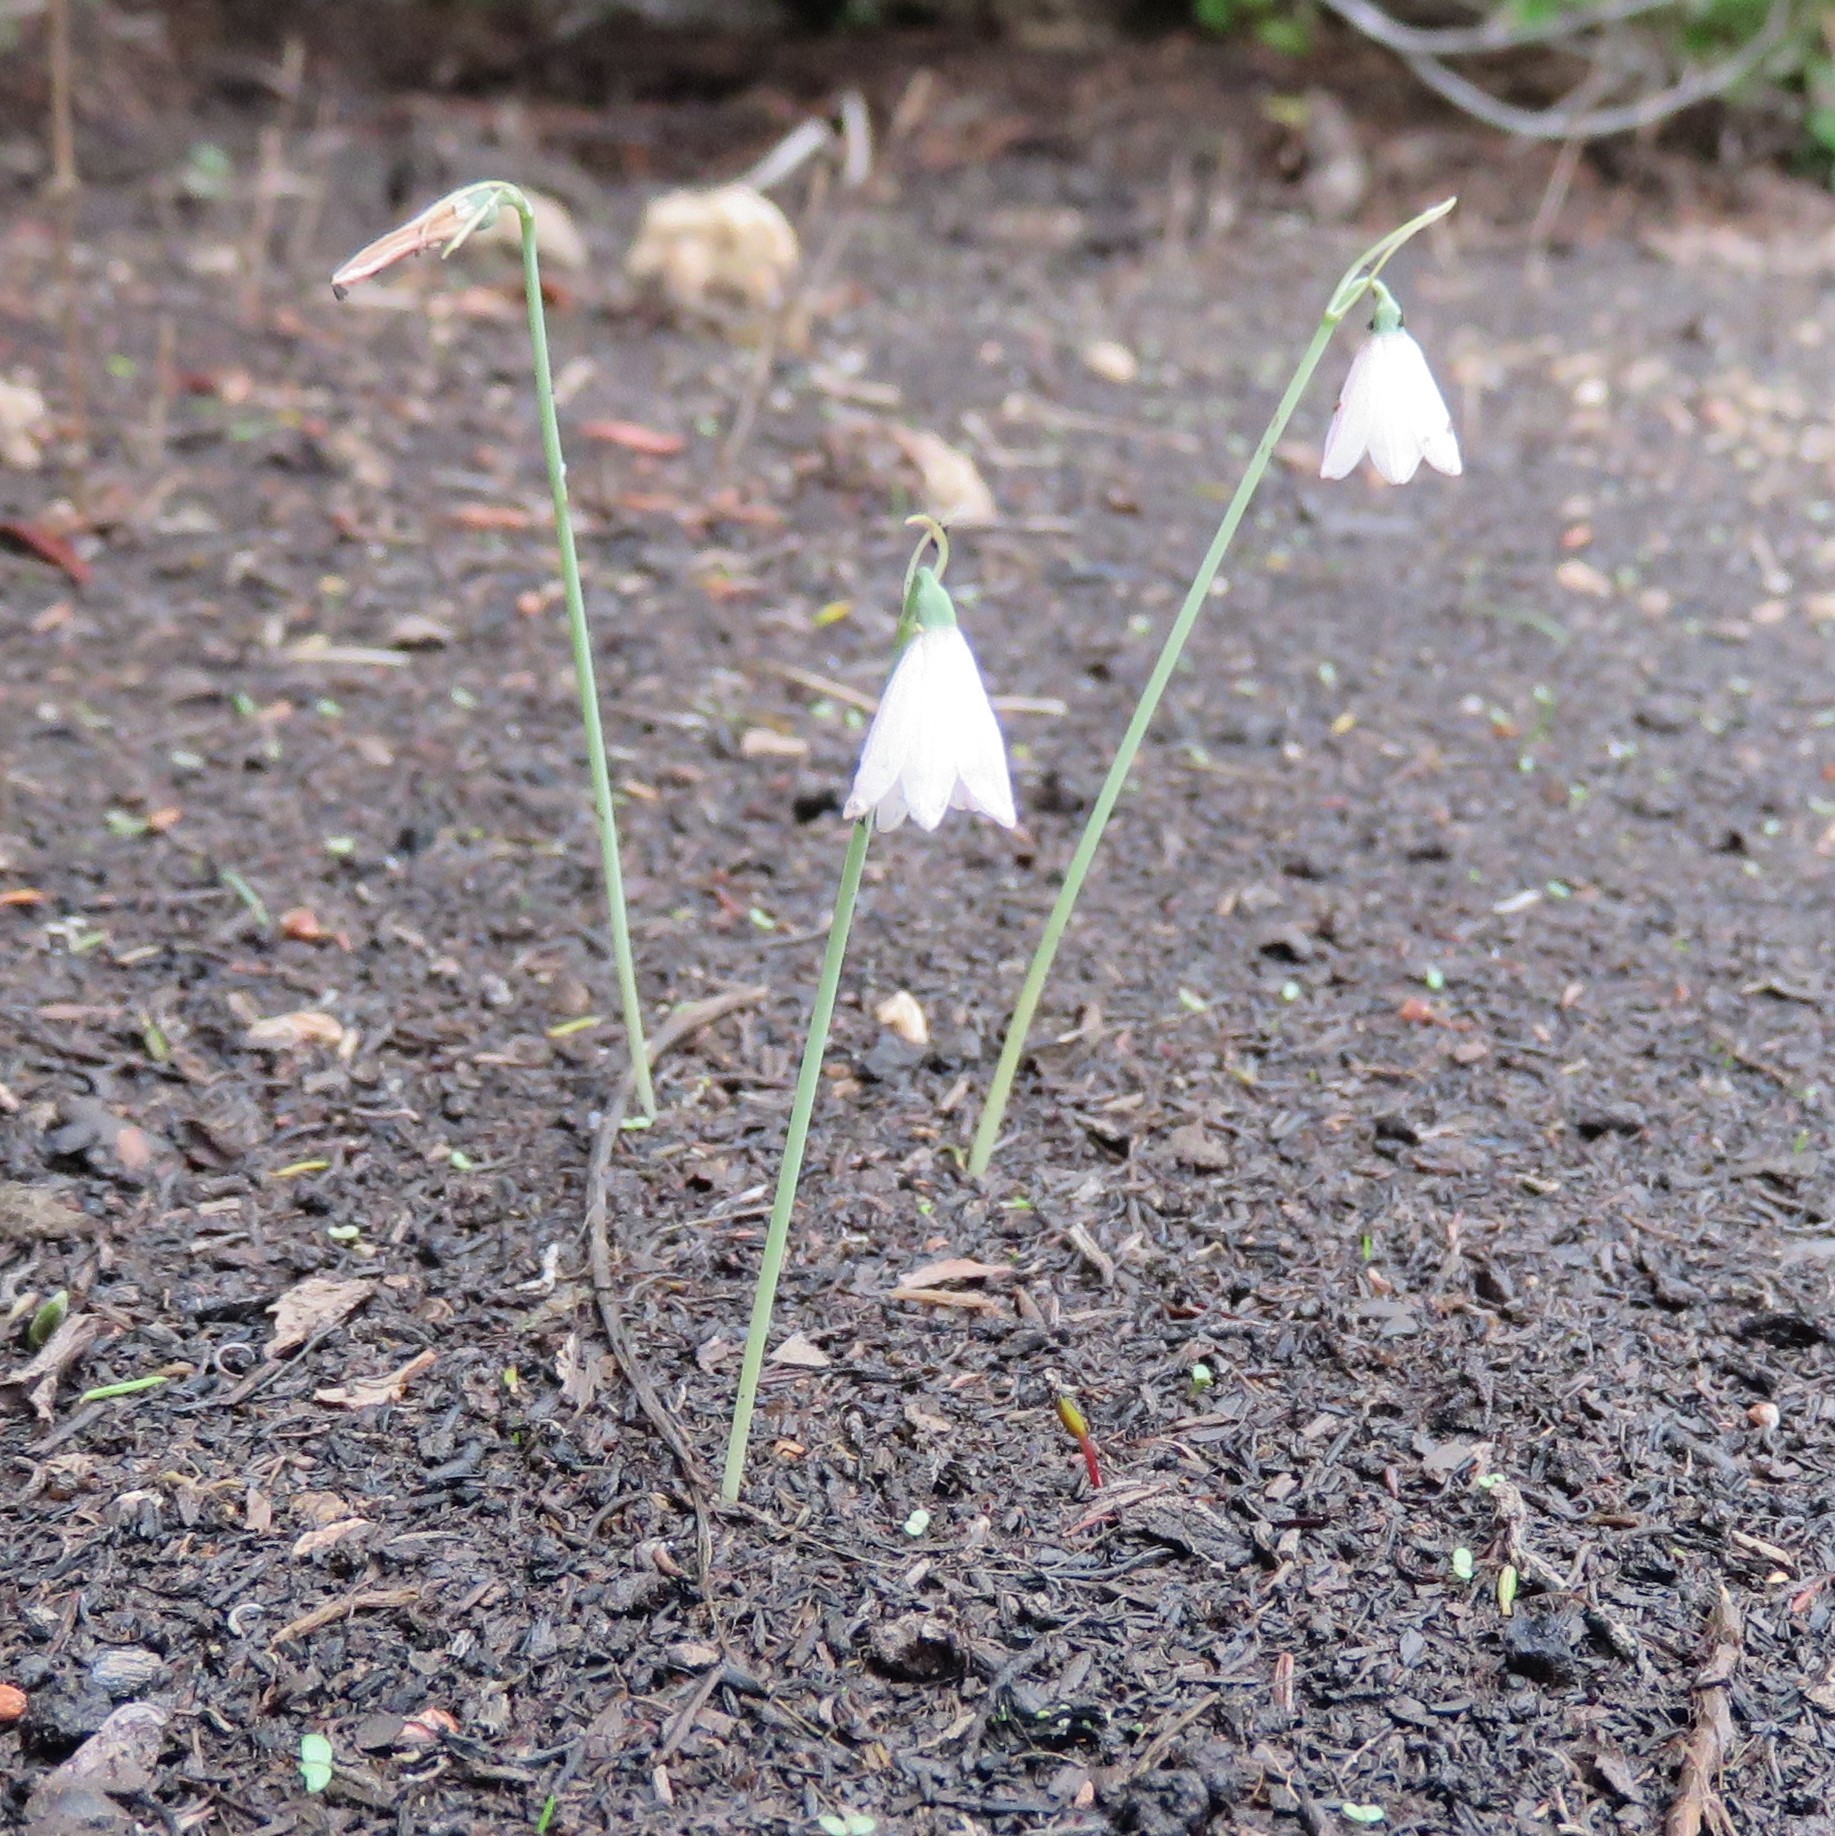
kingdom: Plantae
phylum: Tracheophyta
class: Liliopsida
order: Asparagales
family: Amaryllidaceae
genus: Acis
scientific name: Acis rosea
